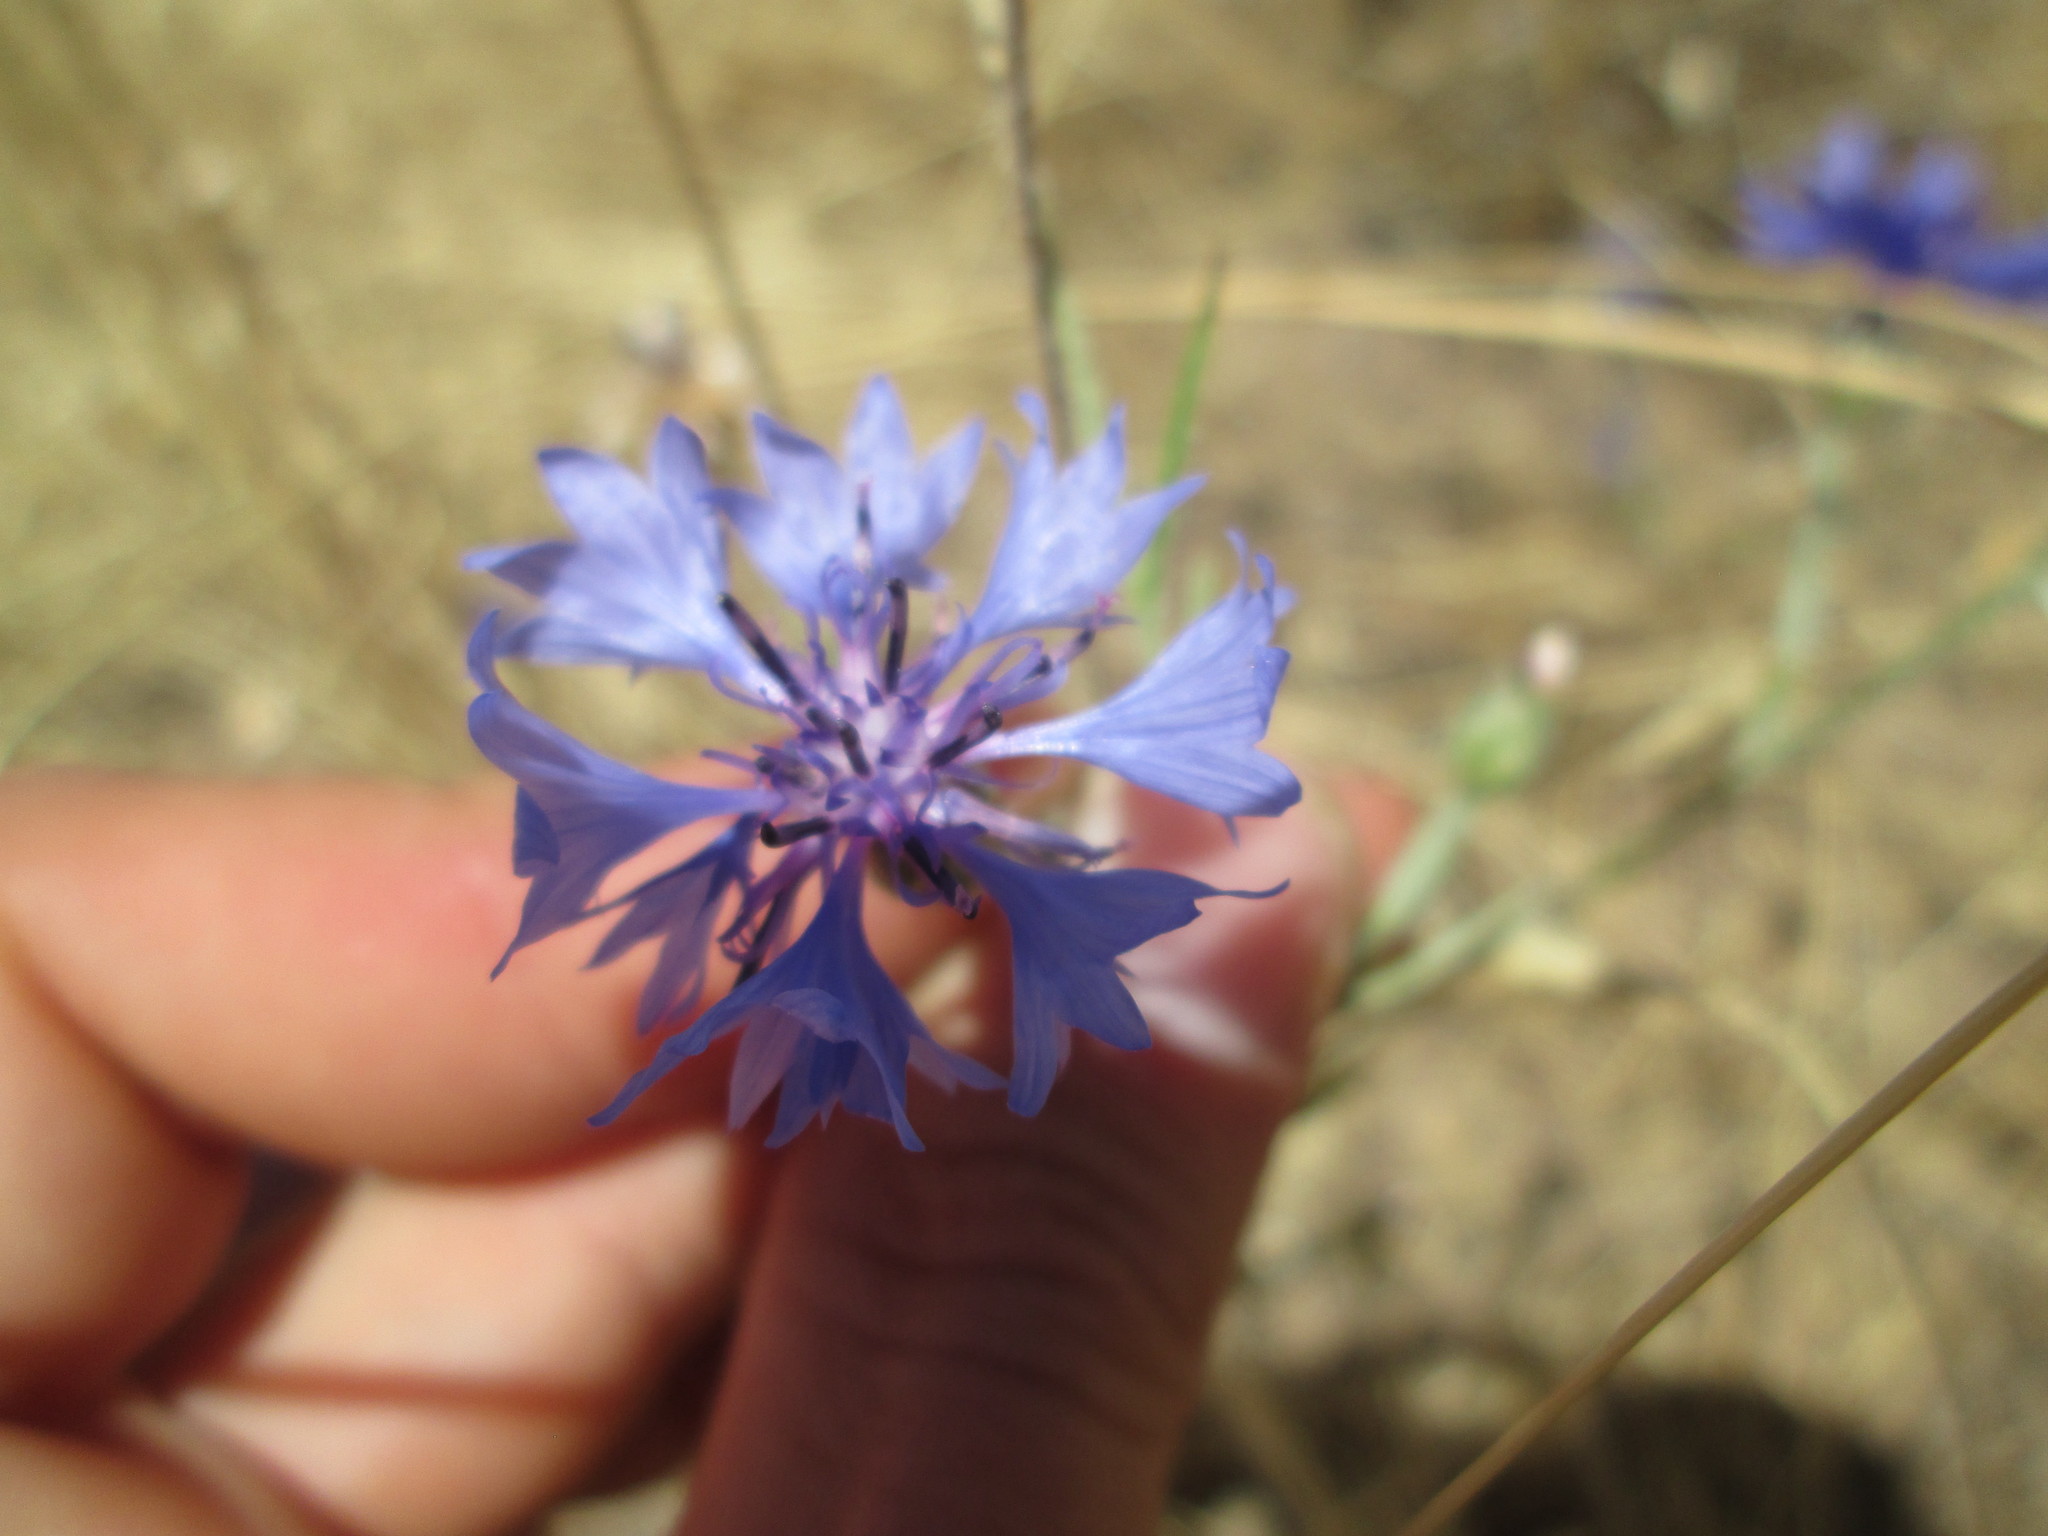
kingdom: Plantae
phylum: Tracheophyta
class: Magnoliopsida
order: Asterales
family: Asteraceae
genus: Centaurea
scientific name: Centaurea cyanus
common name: Cornflower
